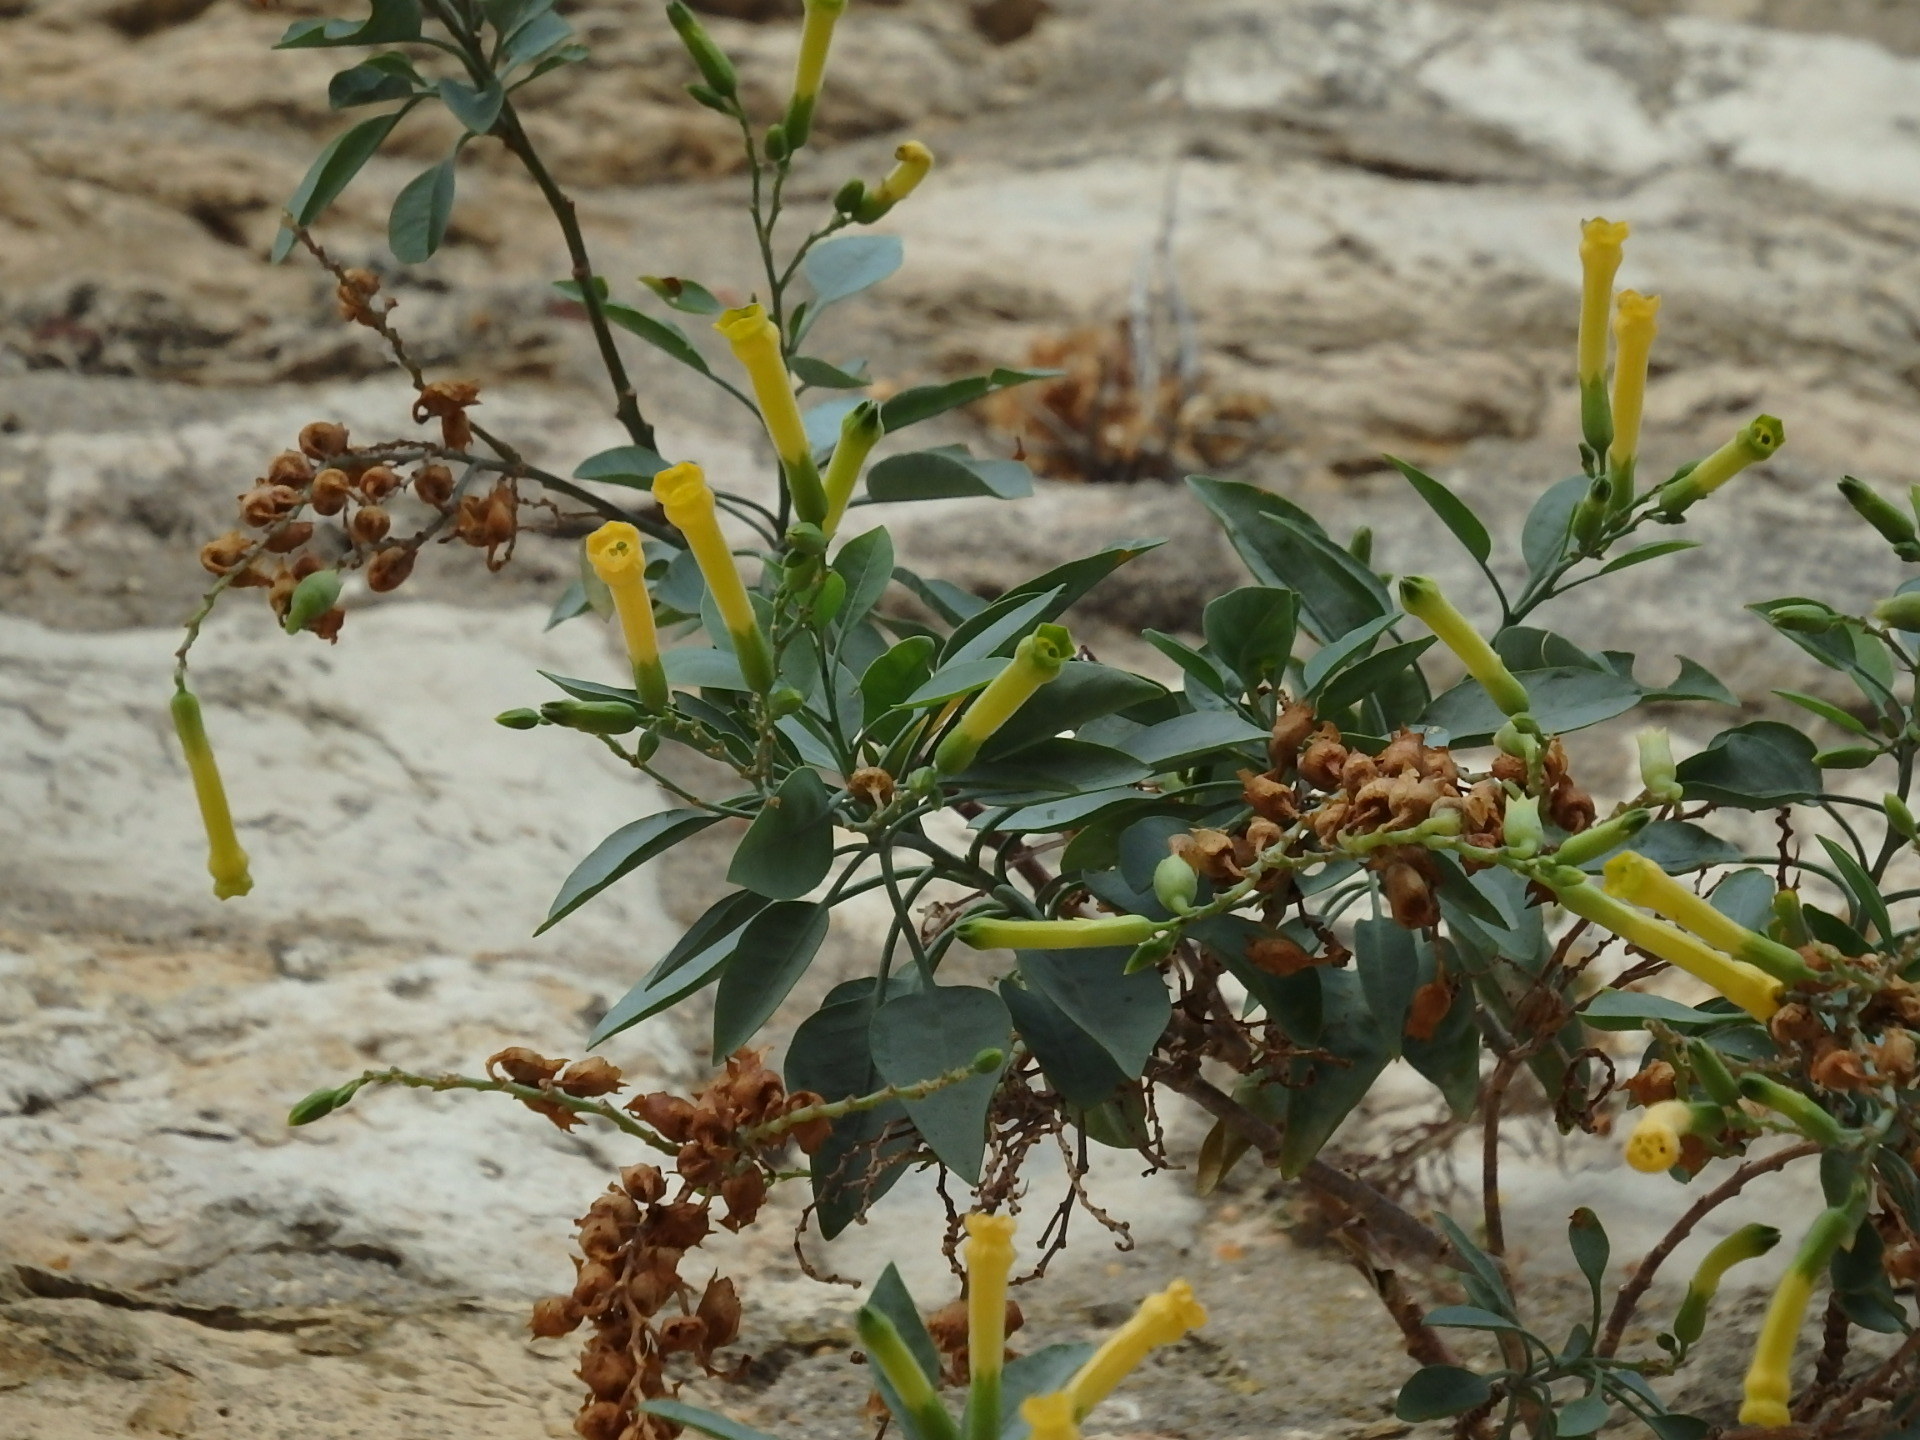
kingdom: Plantae
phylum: Tracheophyta
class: Magnoliopsida
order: Solanales
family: Solanaceae
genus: Nicotiana
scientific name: Nicotiana glauca
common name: Tree tobacco
